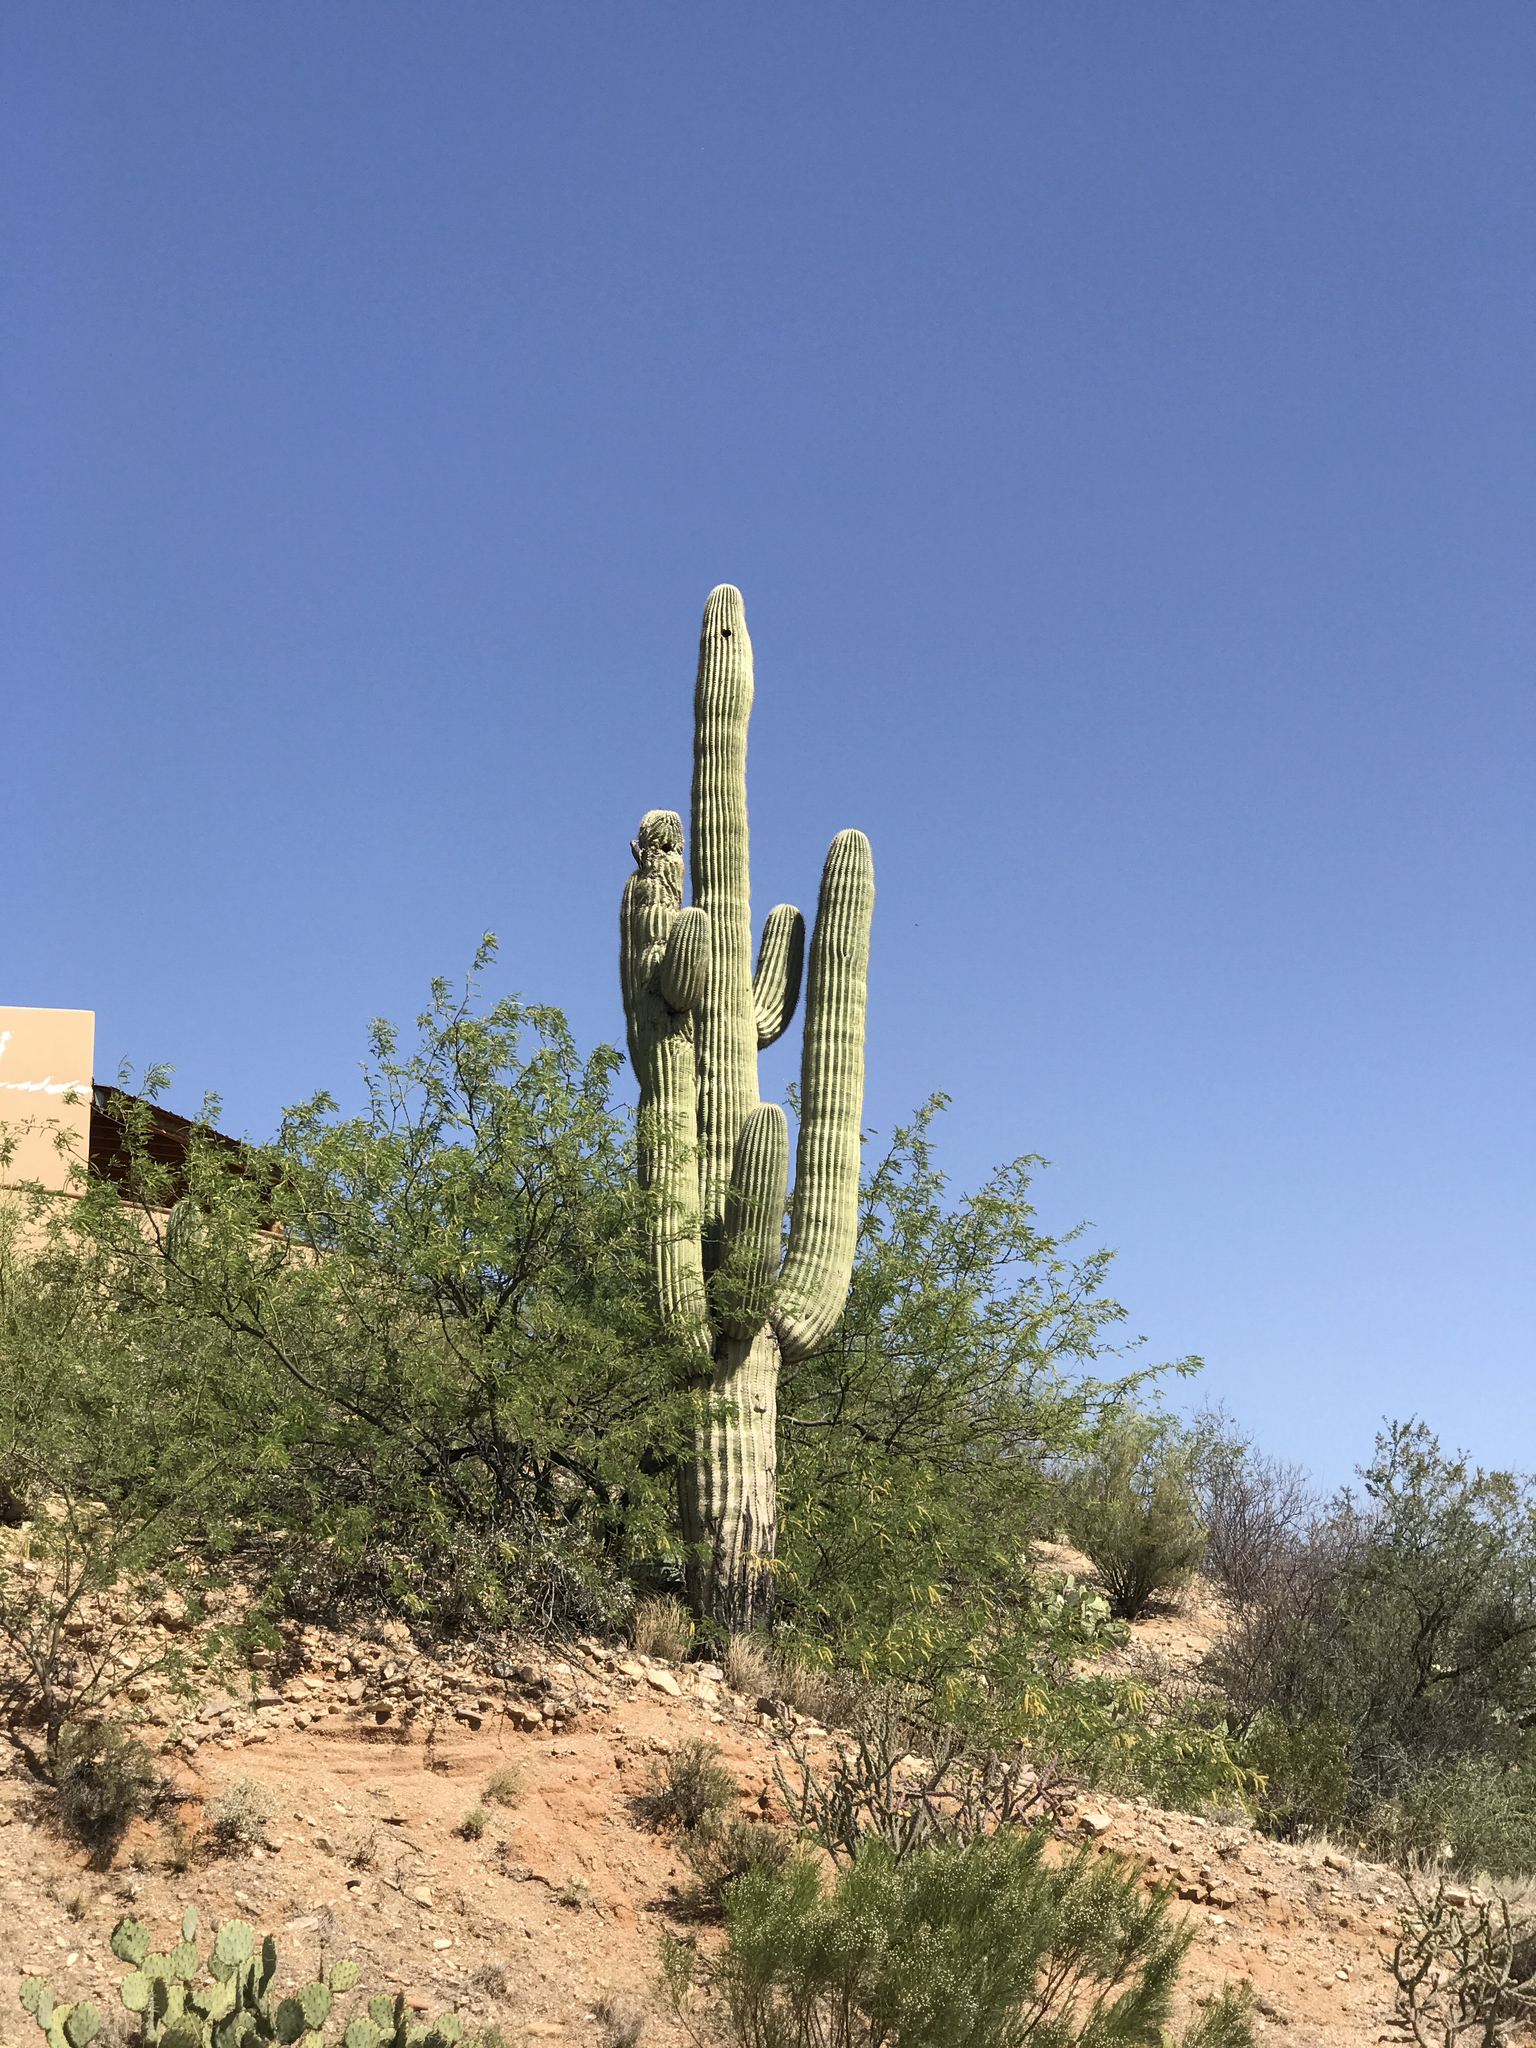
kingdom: Plantae
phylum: Tracheophyta
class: Magnoliopsida
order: Caryophyllales
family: Cactaceae
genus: Carnegiea
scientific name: Carnegiea gigantea
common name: Saguaro
